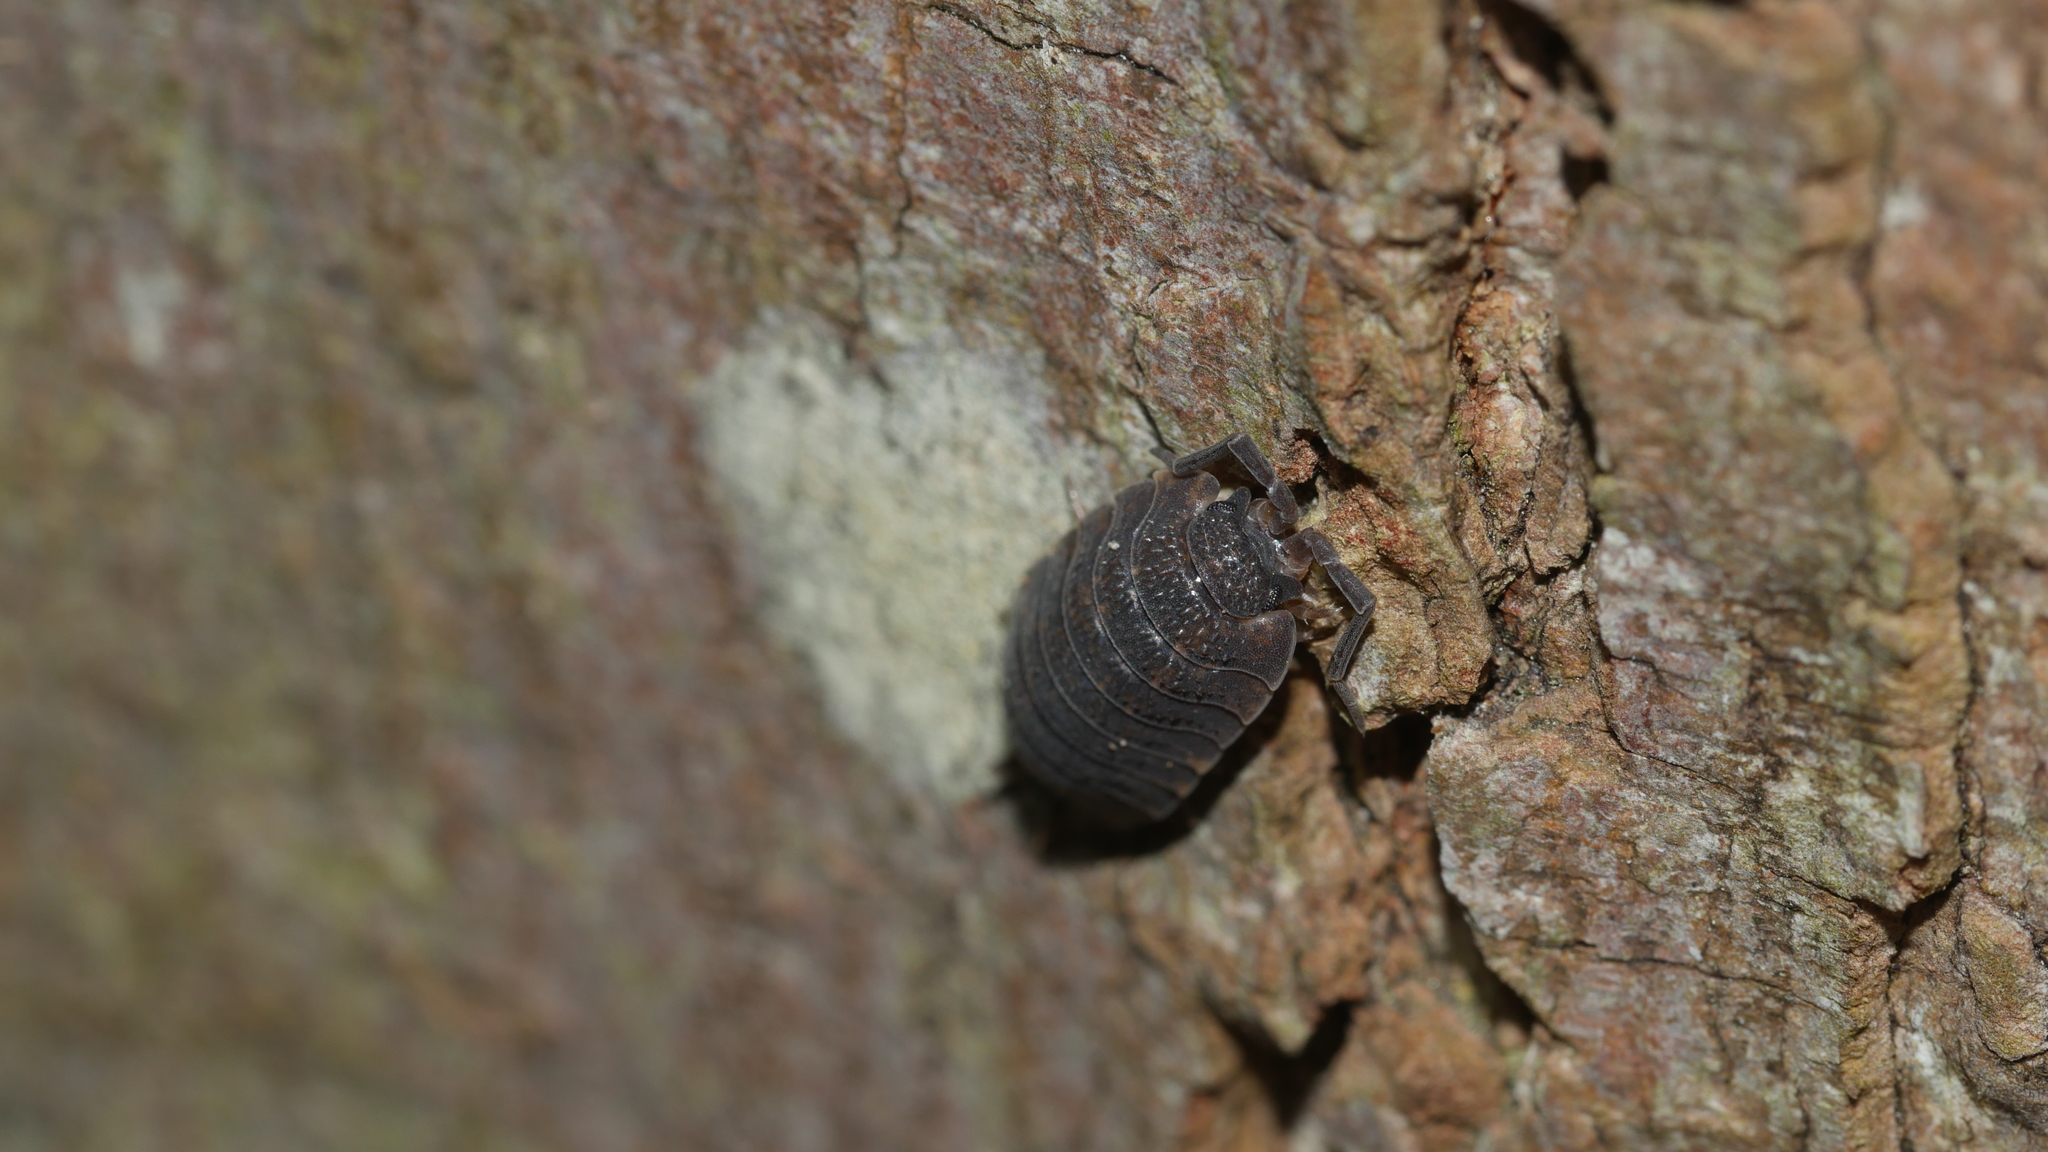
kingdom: Animalia
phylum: Arthropoda
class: Malacostraca
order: Isopoda
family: Porcellionidae
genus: Porcellio
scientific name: Porcellio scaber
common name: Common rough woodlouse
